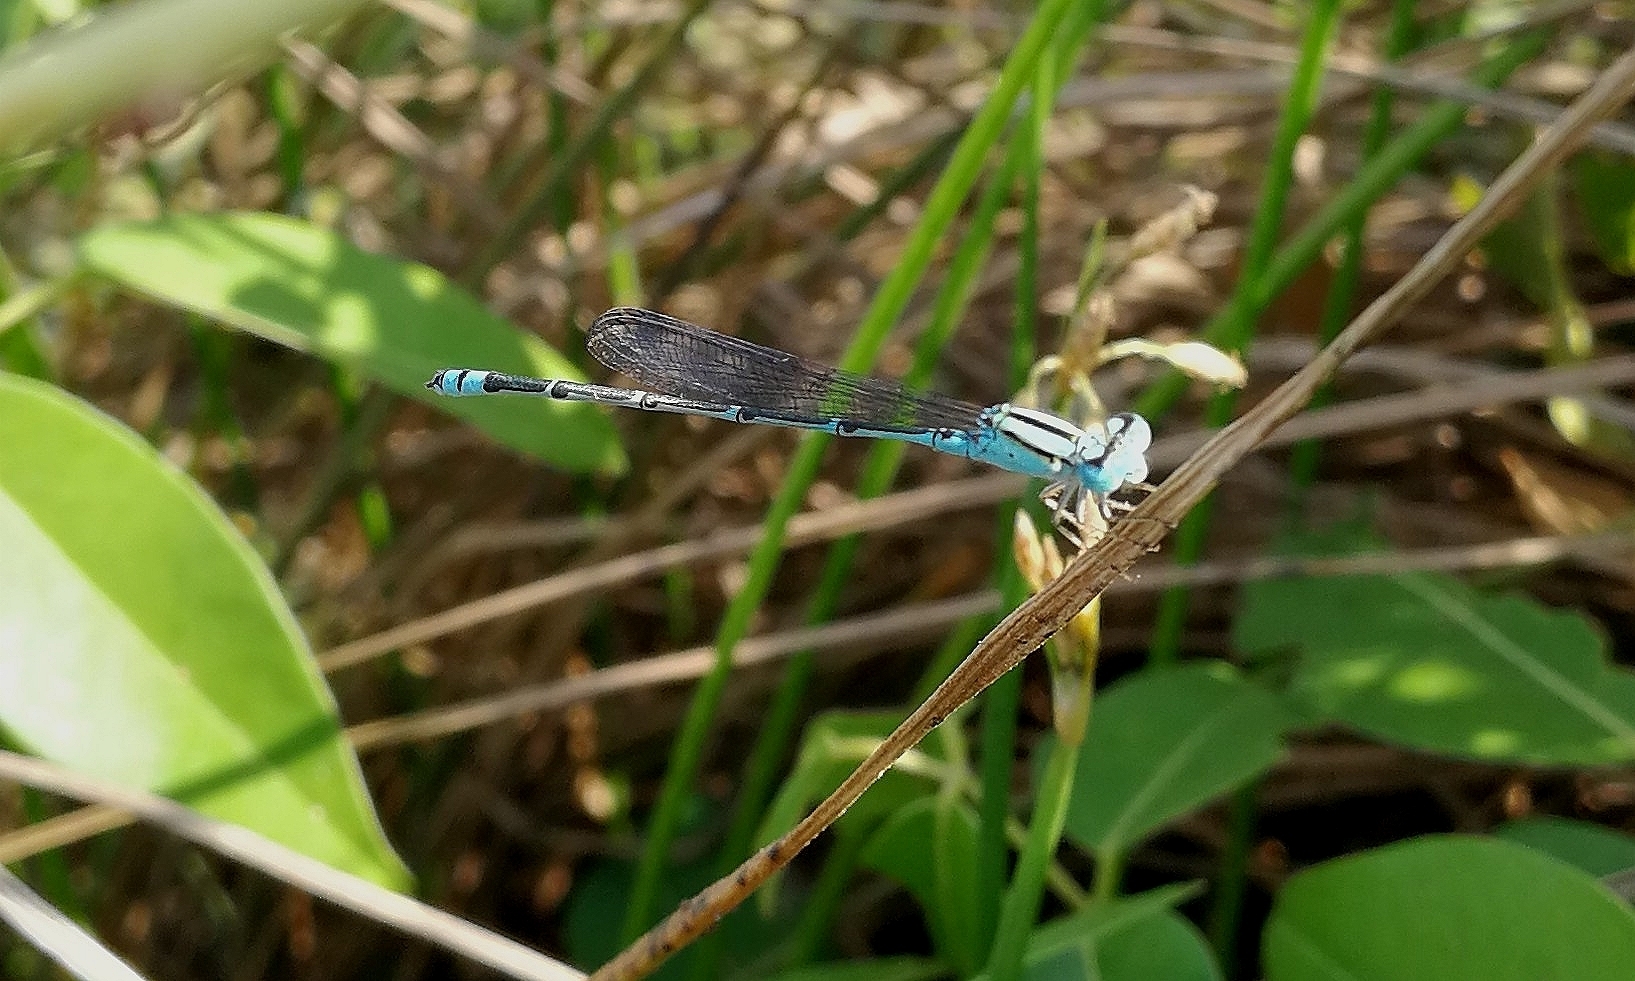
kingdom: Animalia
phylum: Arthropoda
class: Insecta
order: Odonata
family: Coenagrionidae
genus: Pseudagrion
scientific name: Pseudagrion microcephalum
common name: Blue riverdamsel
